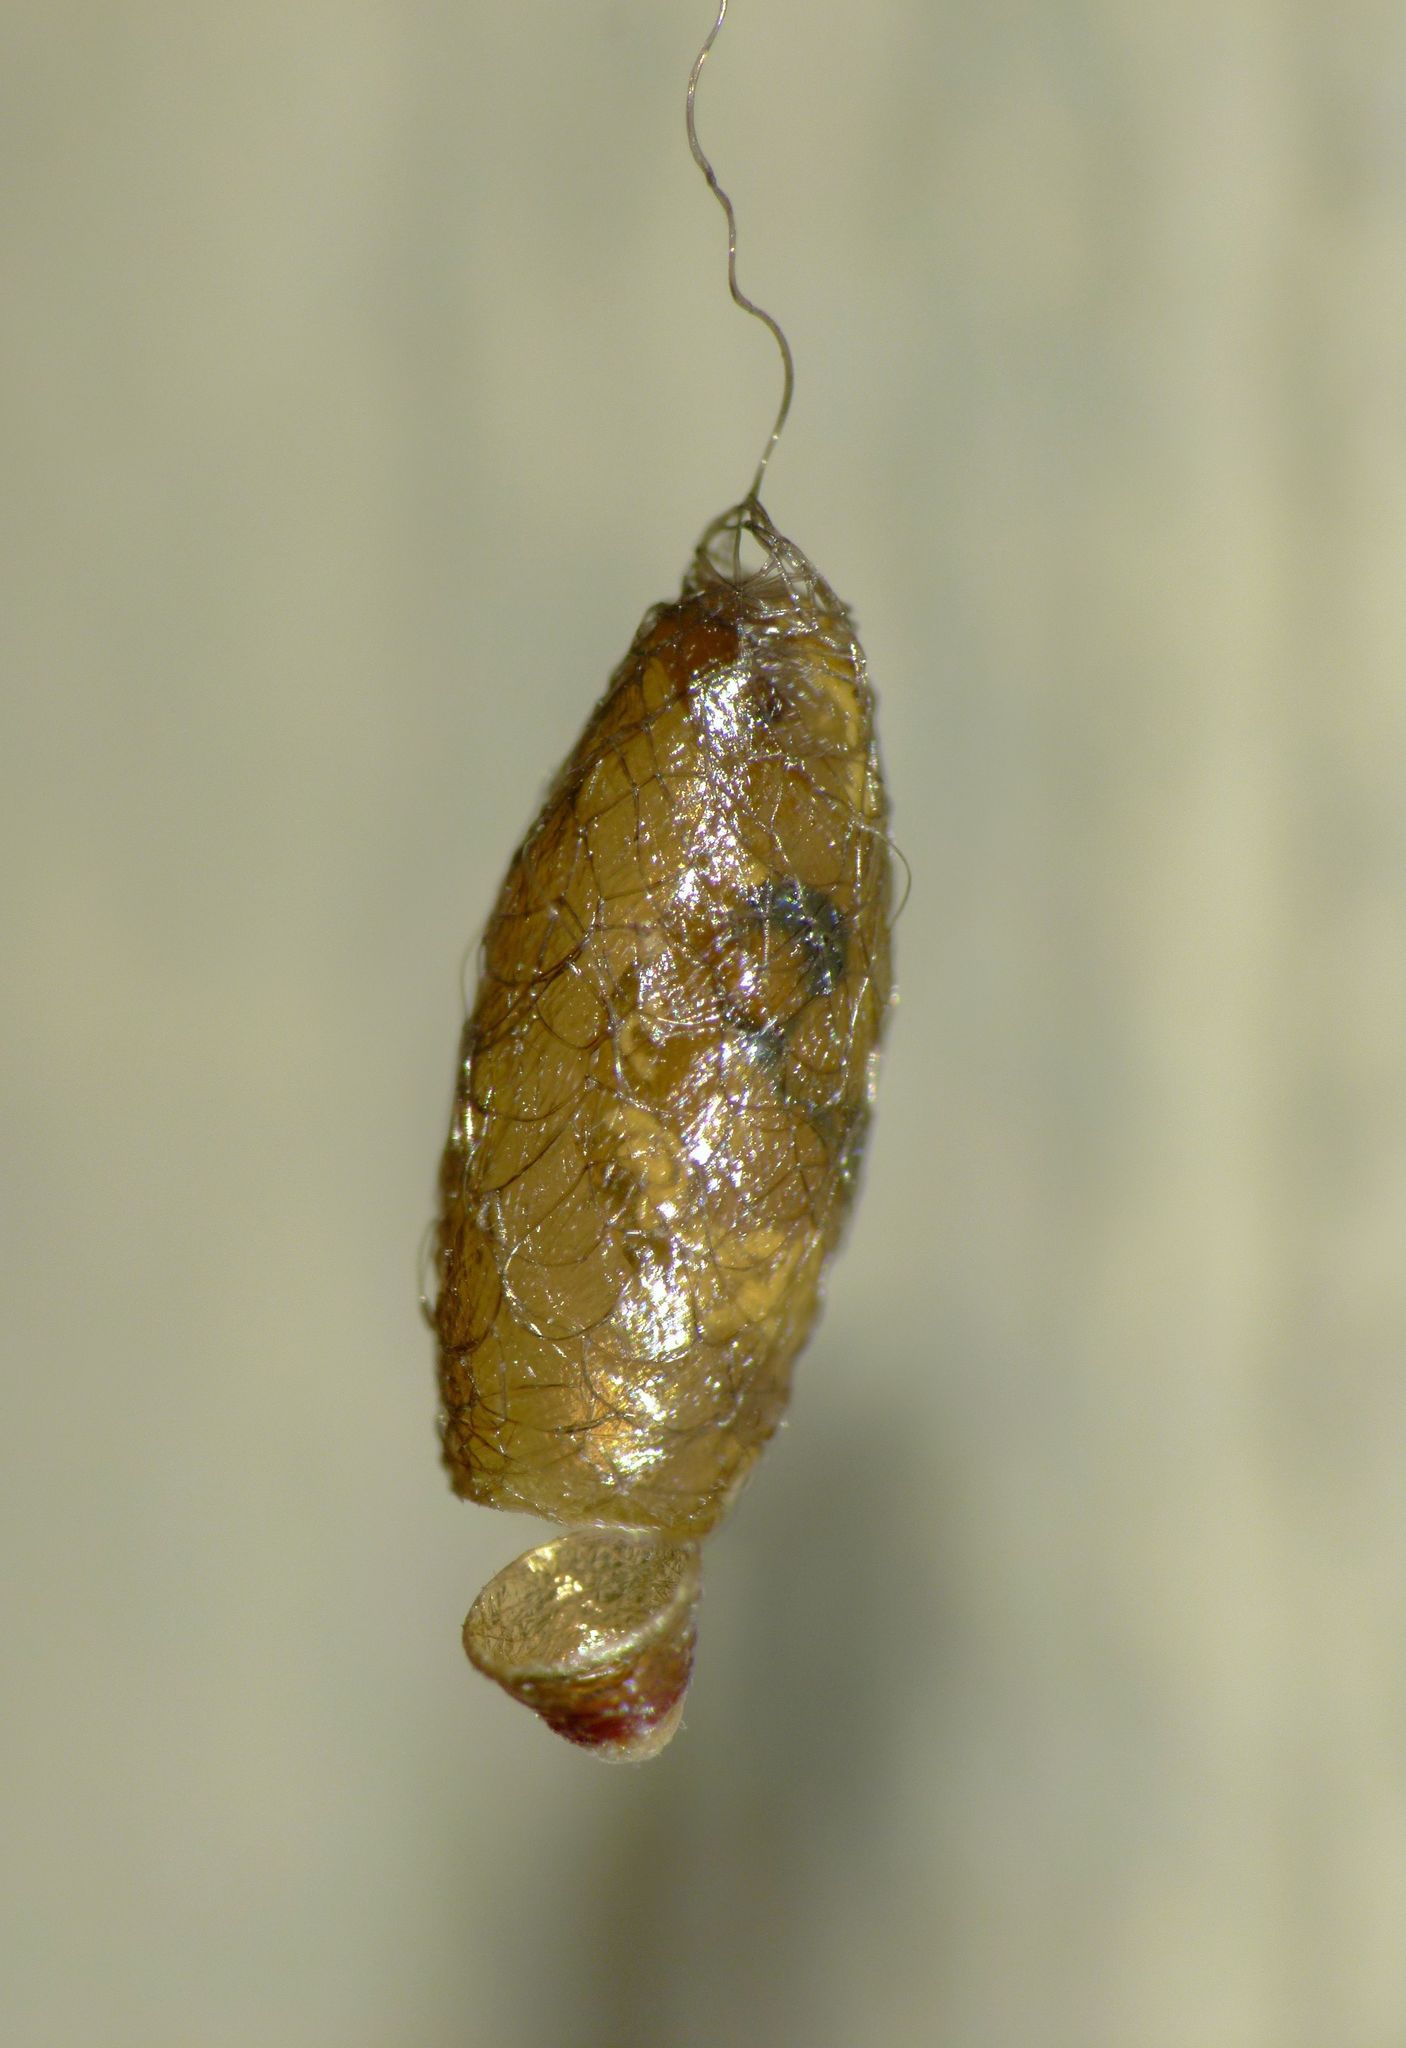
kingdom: Animalia
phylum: Arthropoda
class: Insecta
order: Hymenoptera
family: Braconidae
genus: Meteorus
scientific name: Meteorus pulchricornis
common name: Braconid wasp
